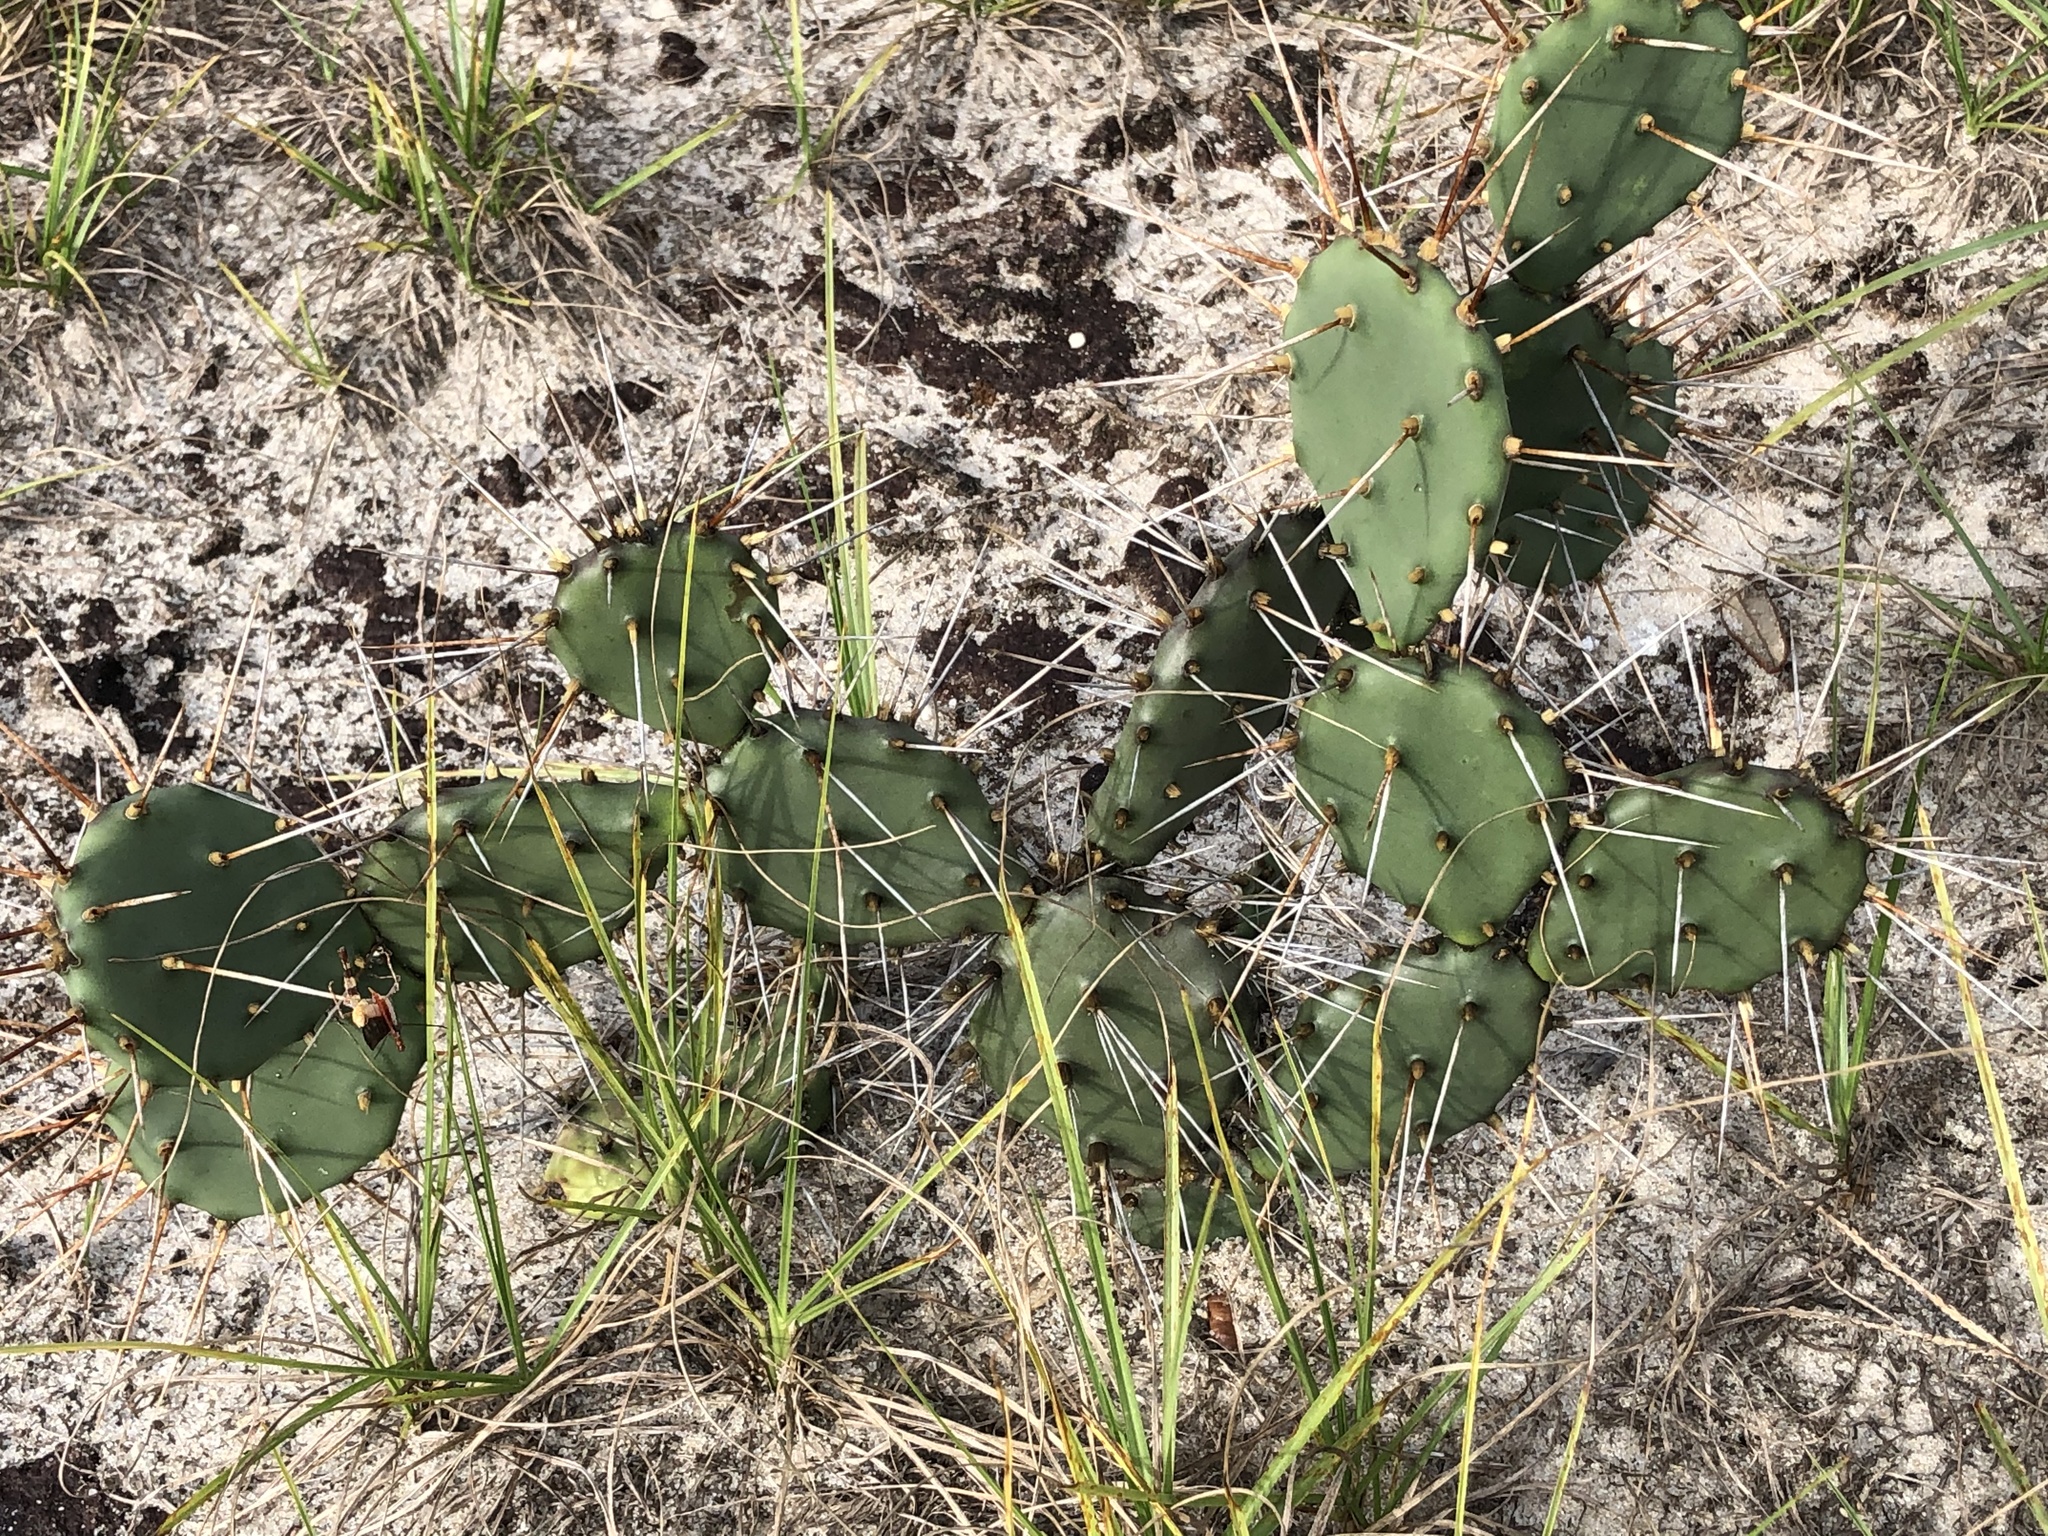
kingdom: Plantae
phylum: Tracheophyta
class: Magnoliopsida
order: Caryophyllales
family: Cactaceae
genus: Opuntia
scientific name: Opuntia austrina
